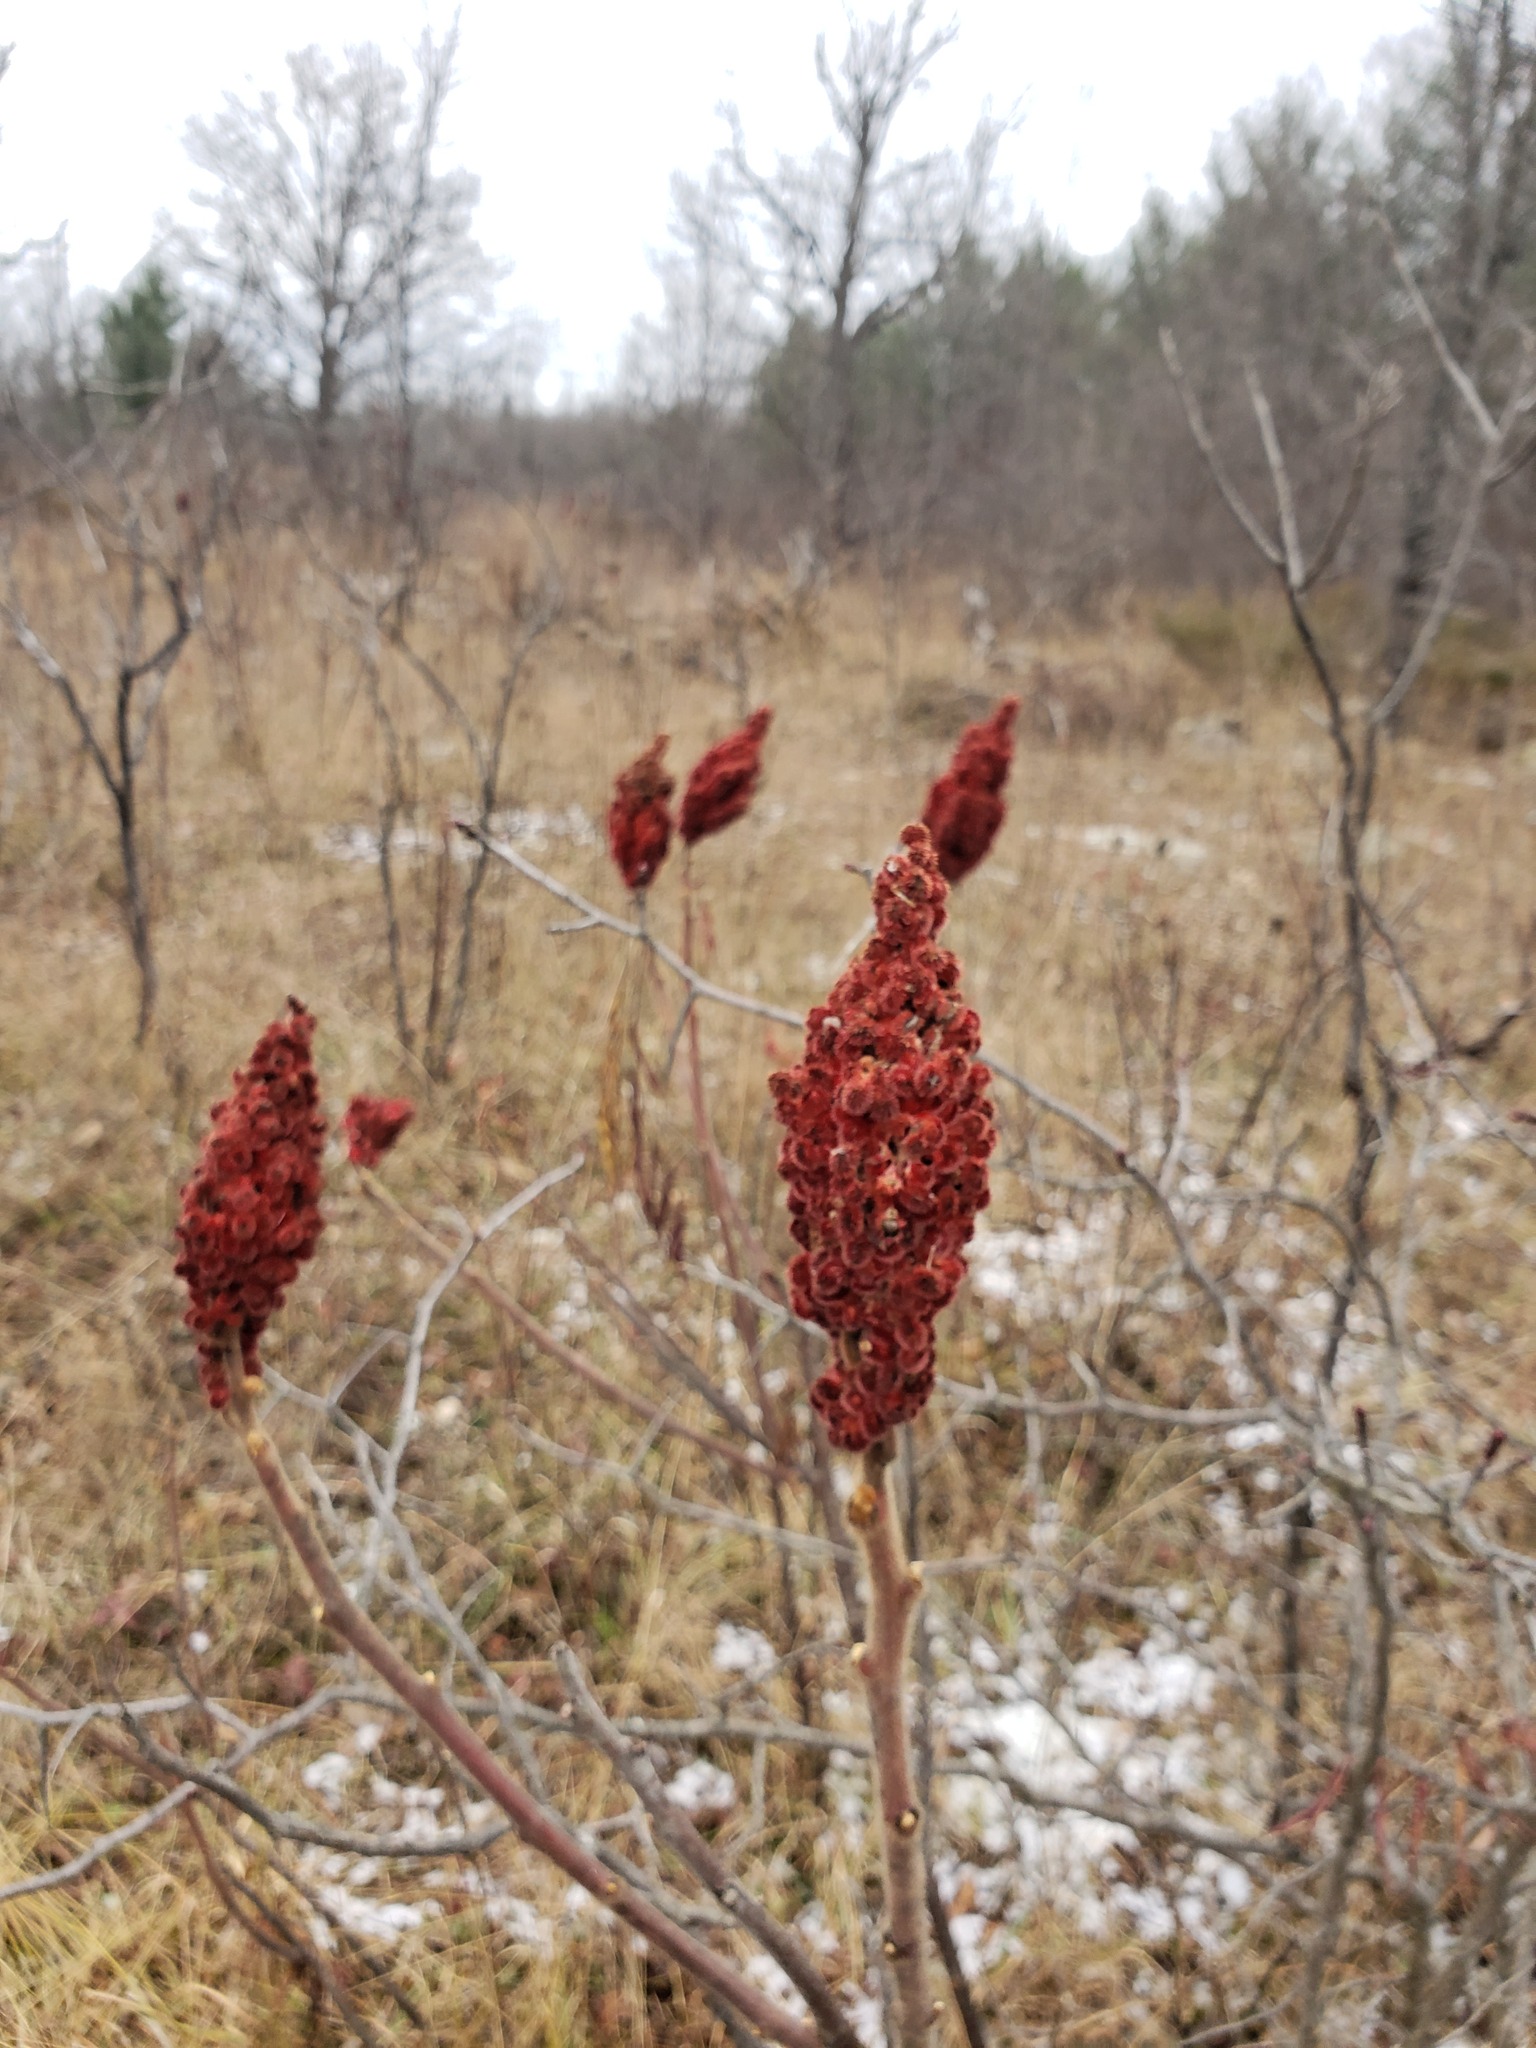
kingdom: Plantae
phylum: Tracheophyta
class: Magnoliopsida
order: Sapindales
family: Anacardiaceae
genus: Rhus
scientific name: Rhus typhina
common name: Staghorn sumac
